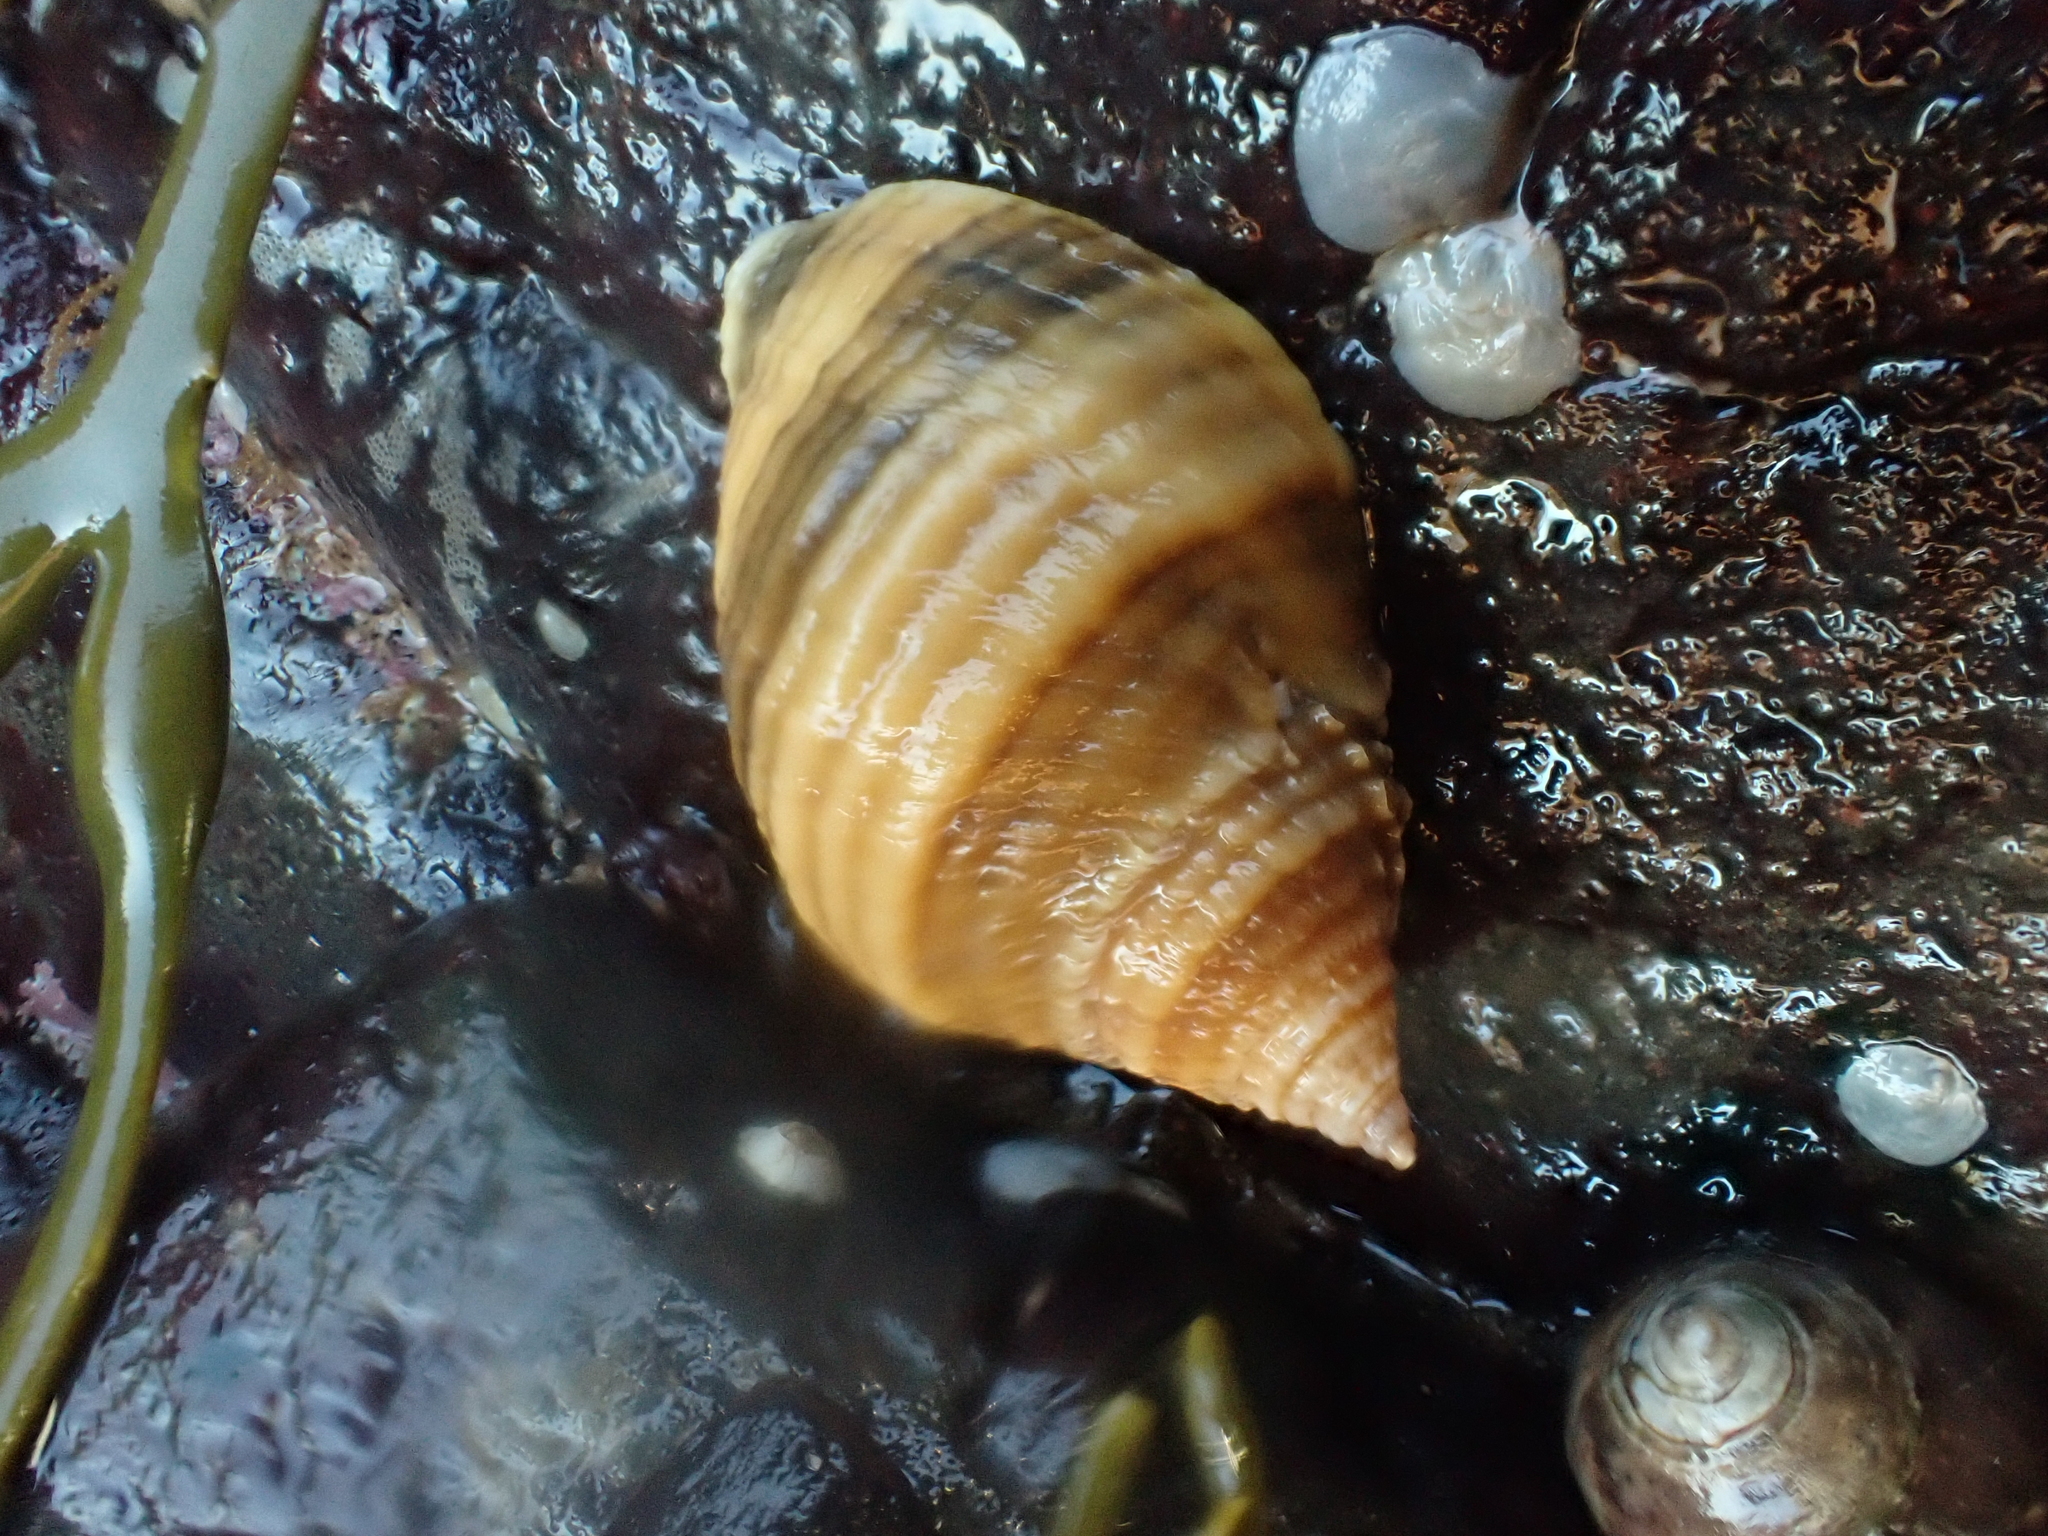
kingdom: Animalia
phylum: Mollusca
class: Gastropoda
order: Neogastropoda
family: Muricidae
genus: Nucella
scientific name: Nucella lapillus
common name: Dog whelk
